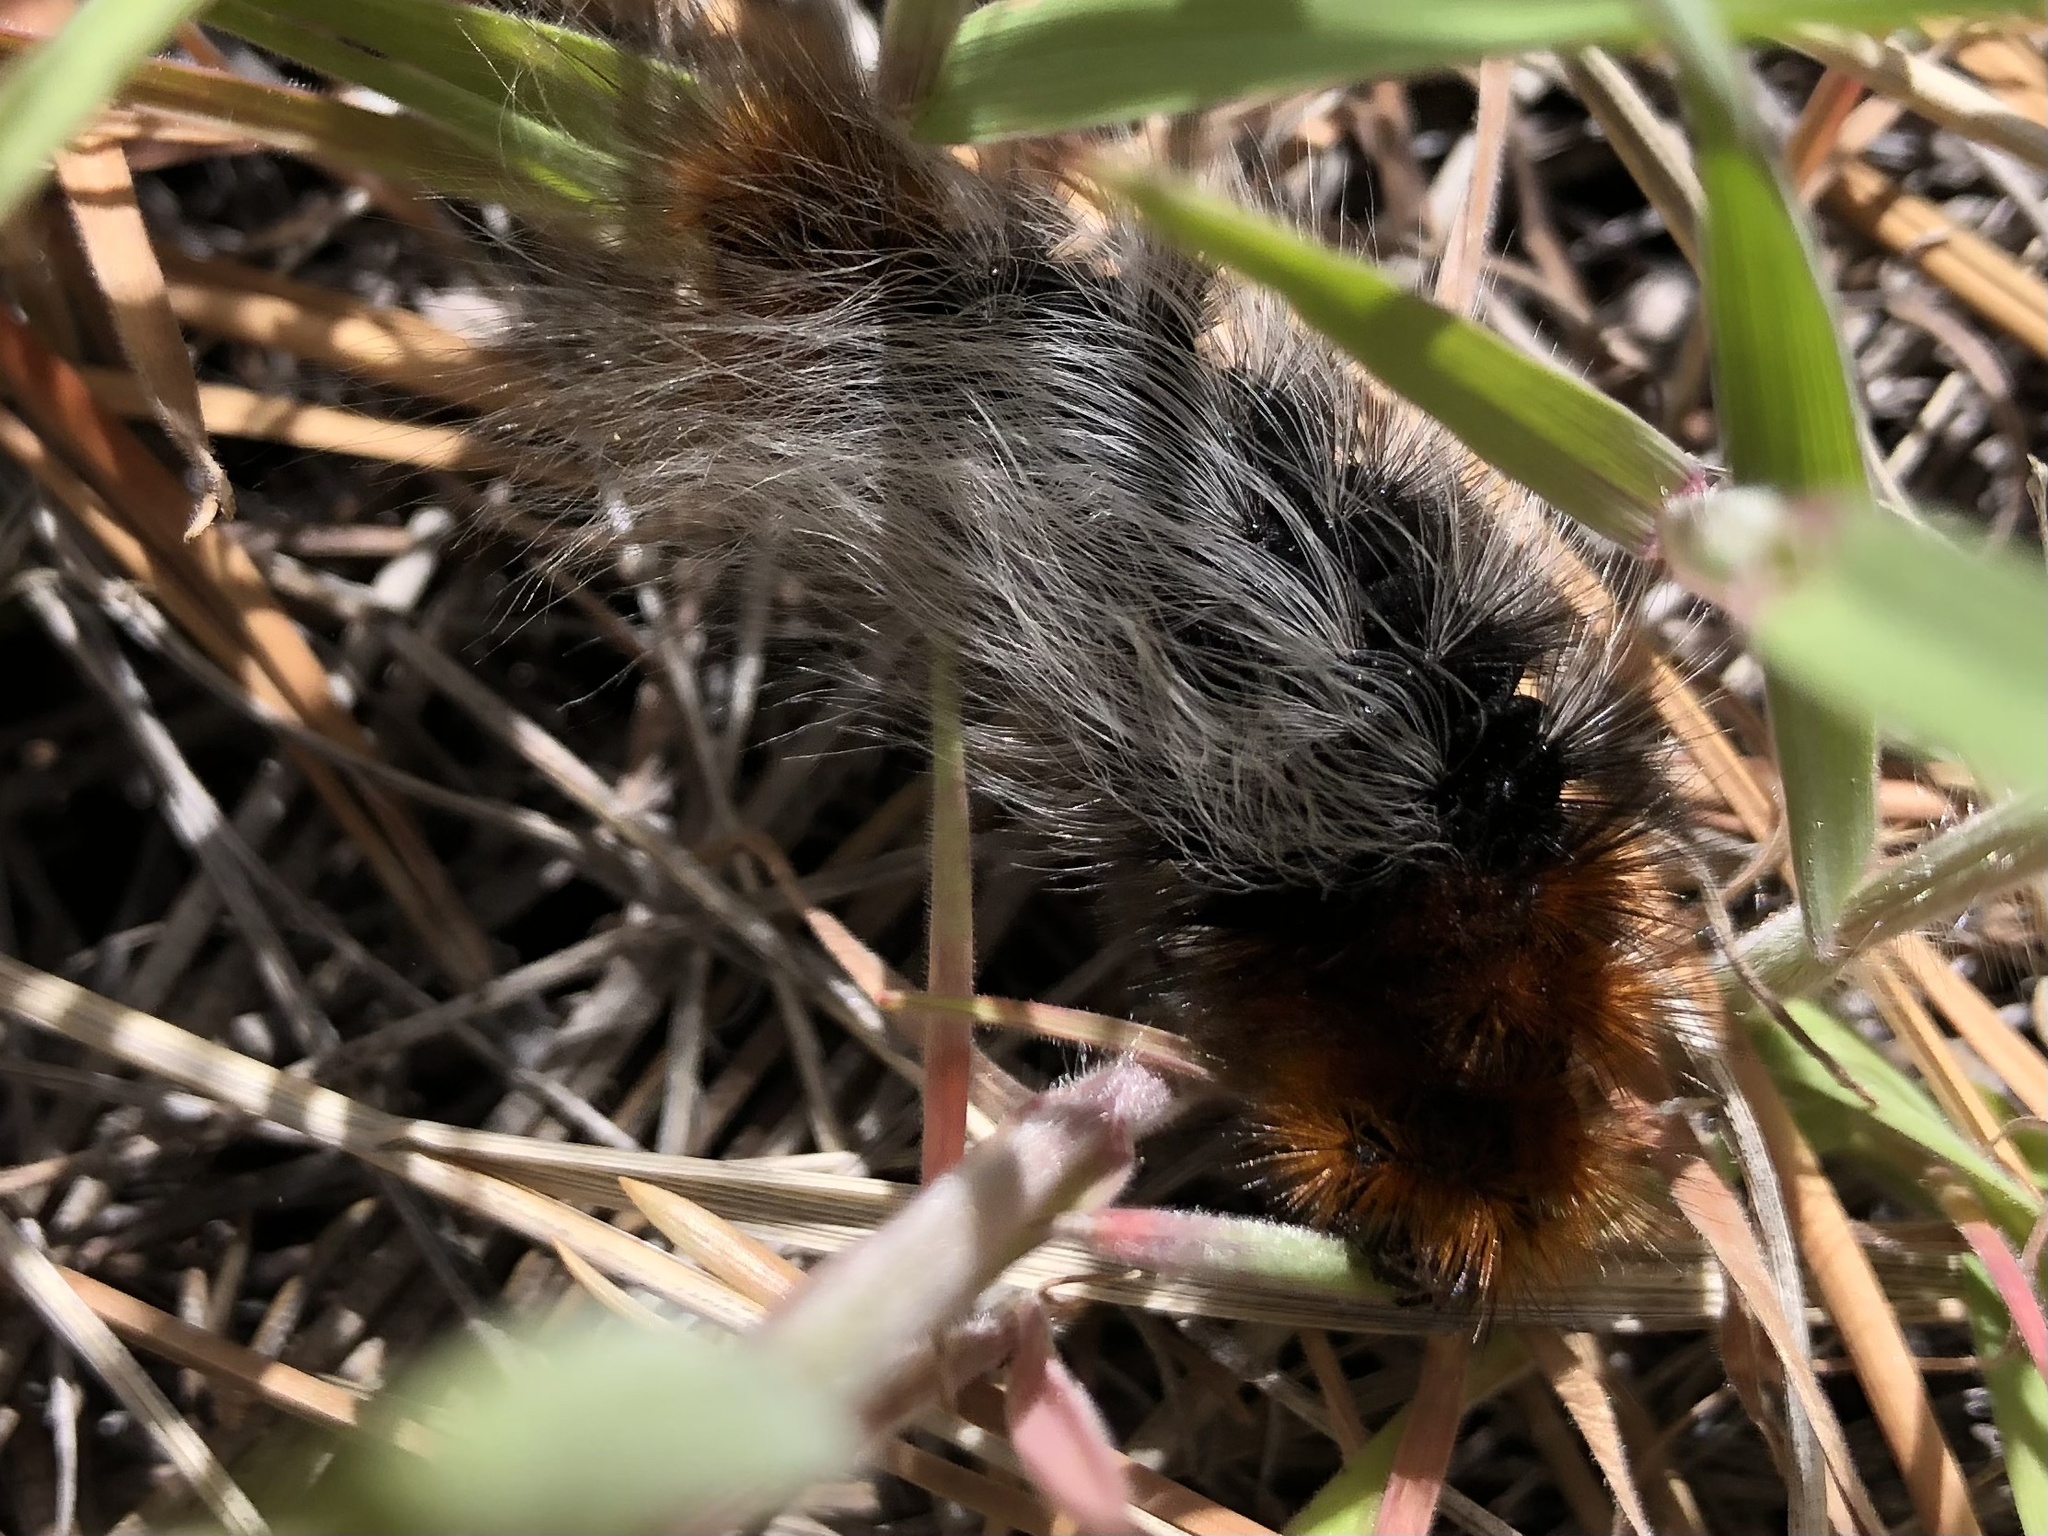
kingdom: Animalia
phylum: Arthropoda
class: Insecta
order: Lepidoptera
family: Erebidae
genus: Arctia
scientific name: Arctia tigrina
